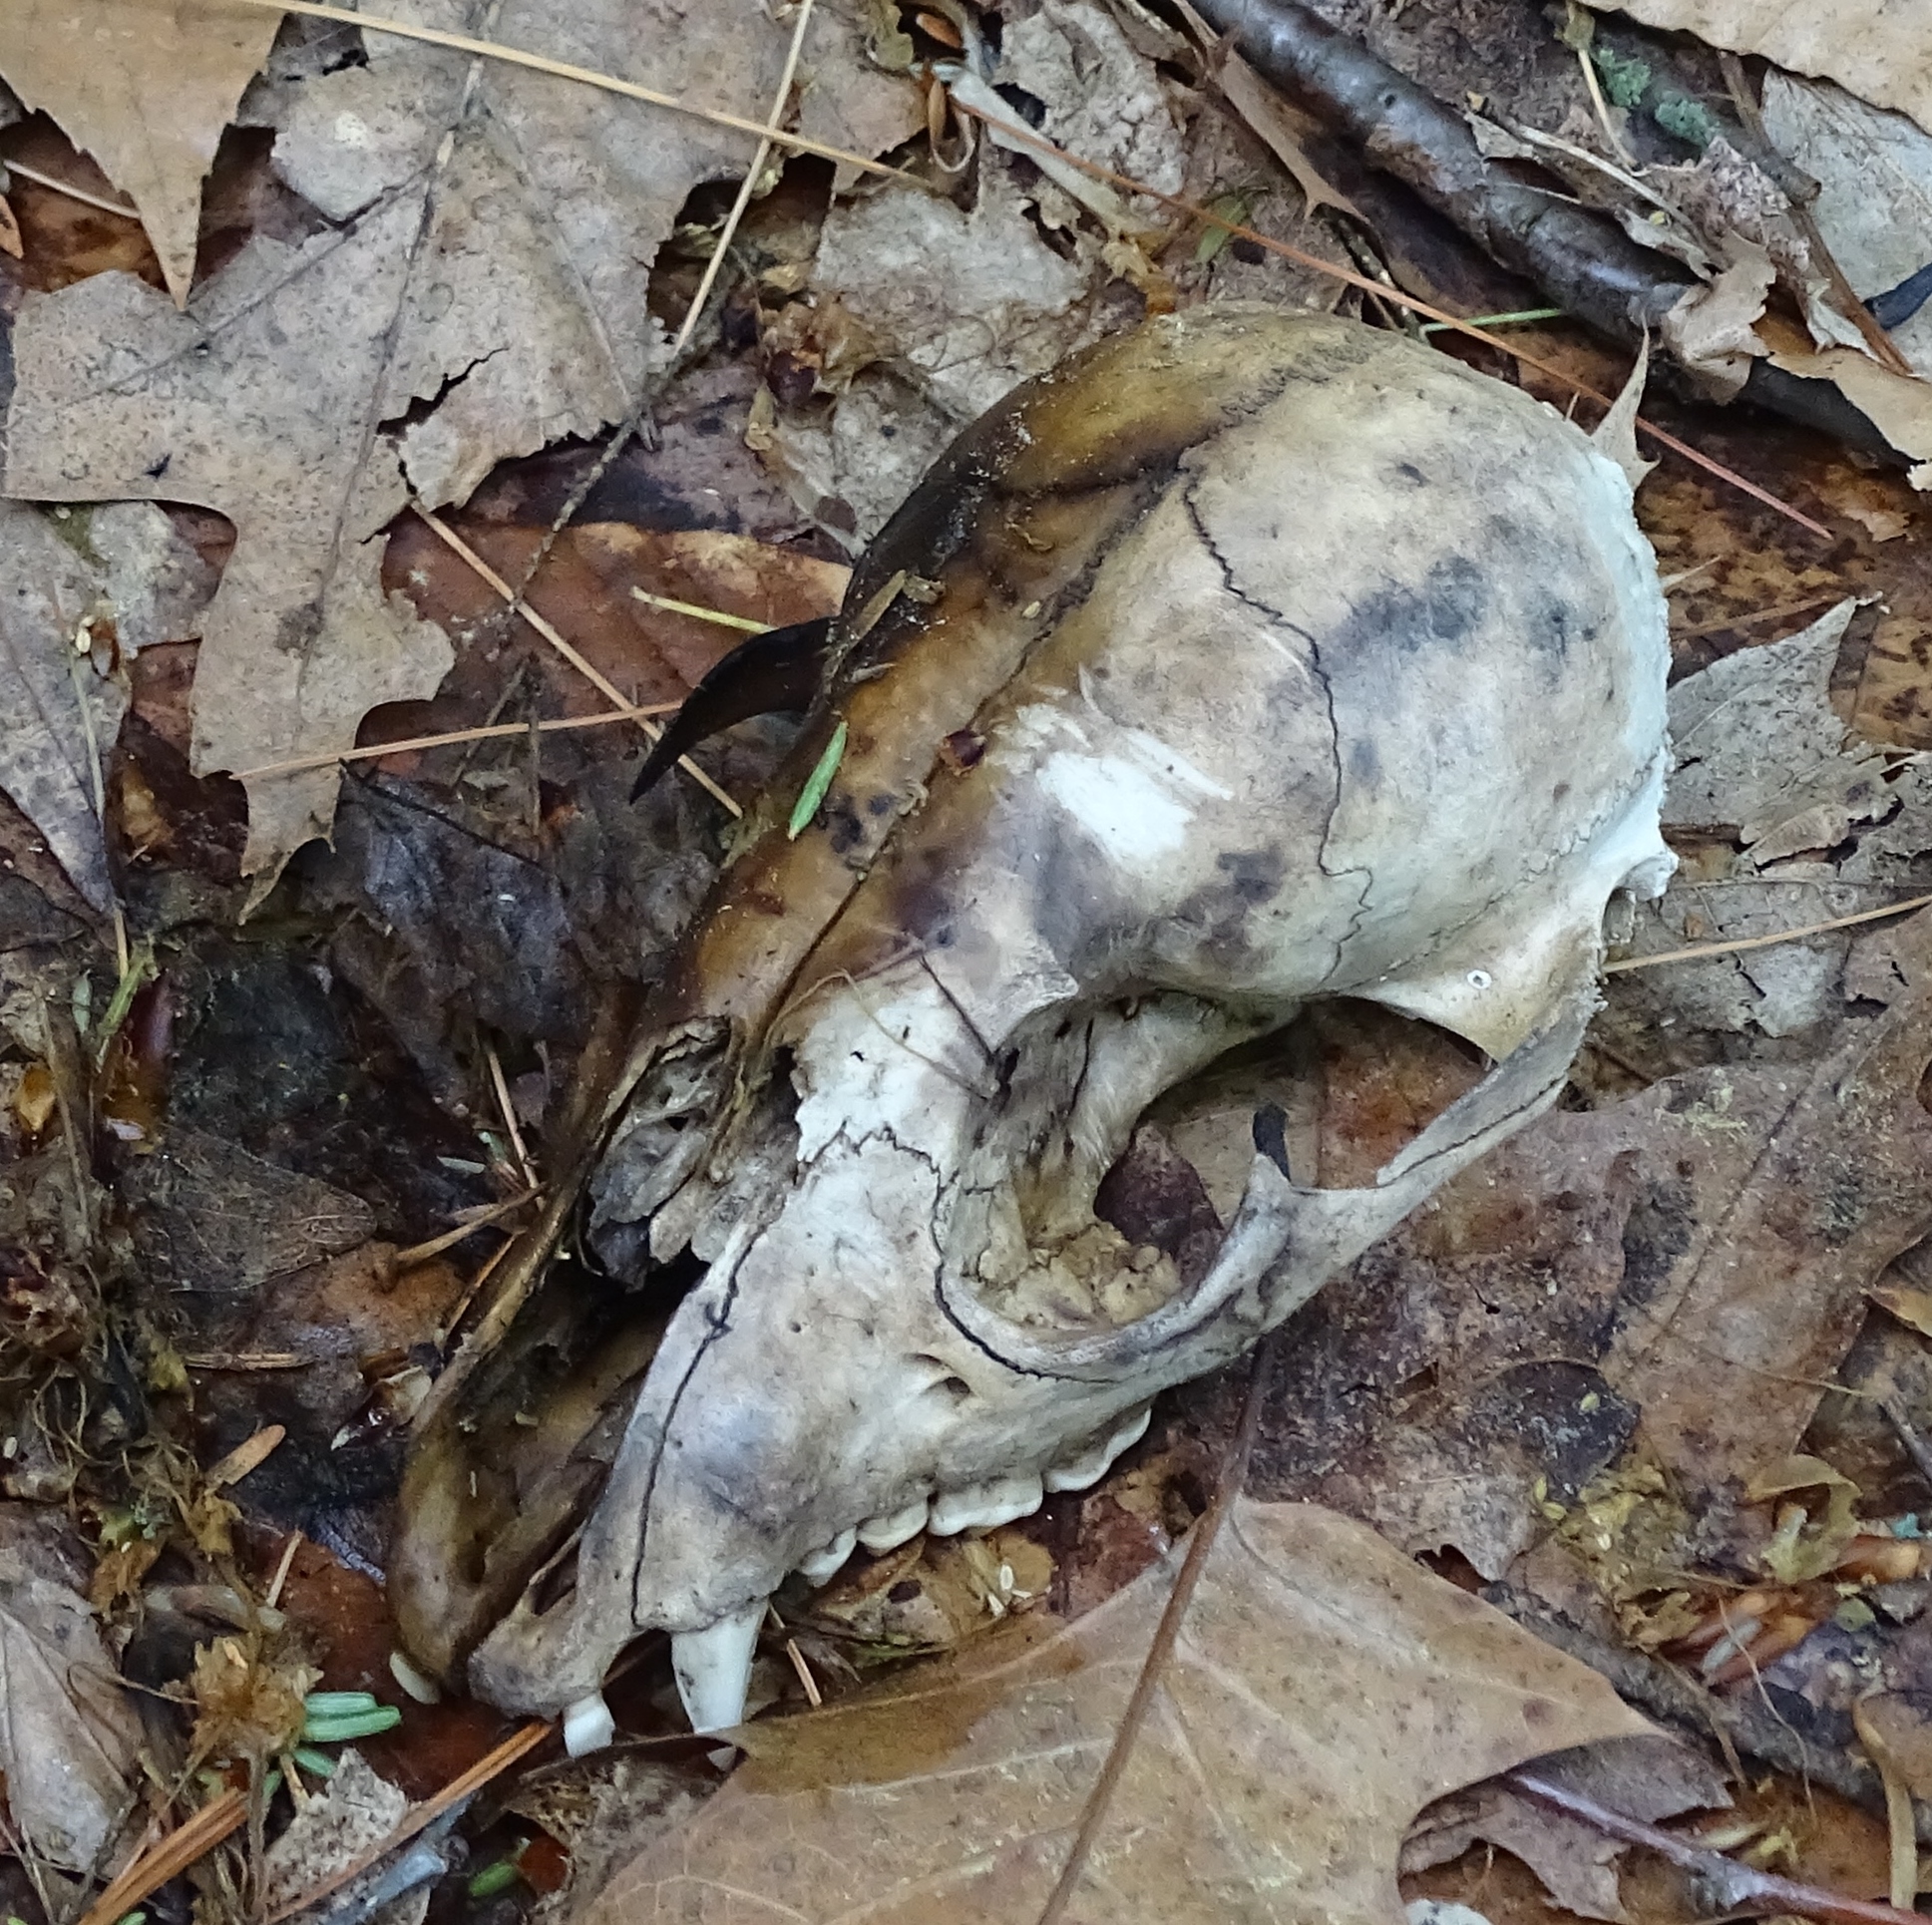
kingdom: Animalia
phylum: Chordata
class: Mammalia
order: Carnivora
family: Procyonidae
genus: Procyon
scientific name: Procyon lotor
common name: Raccoon
